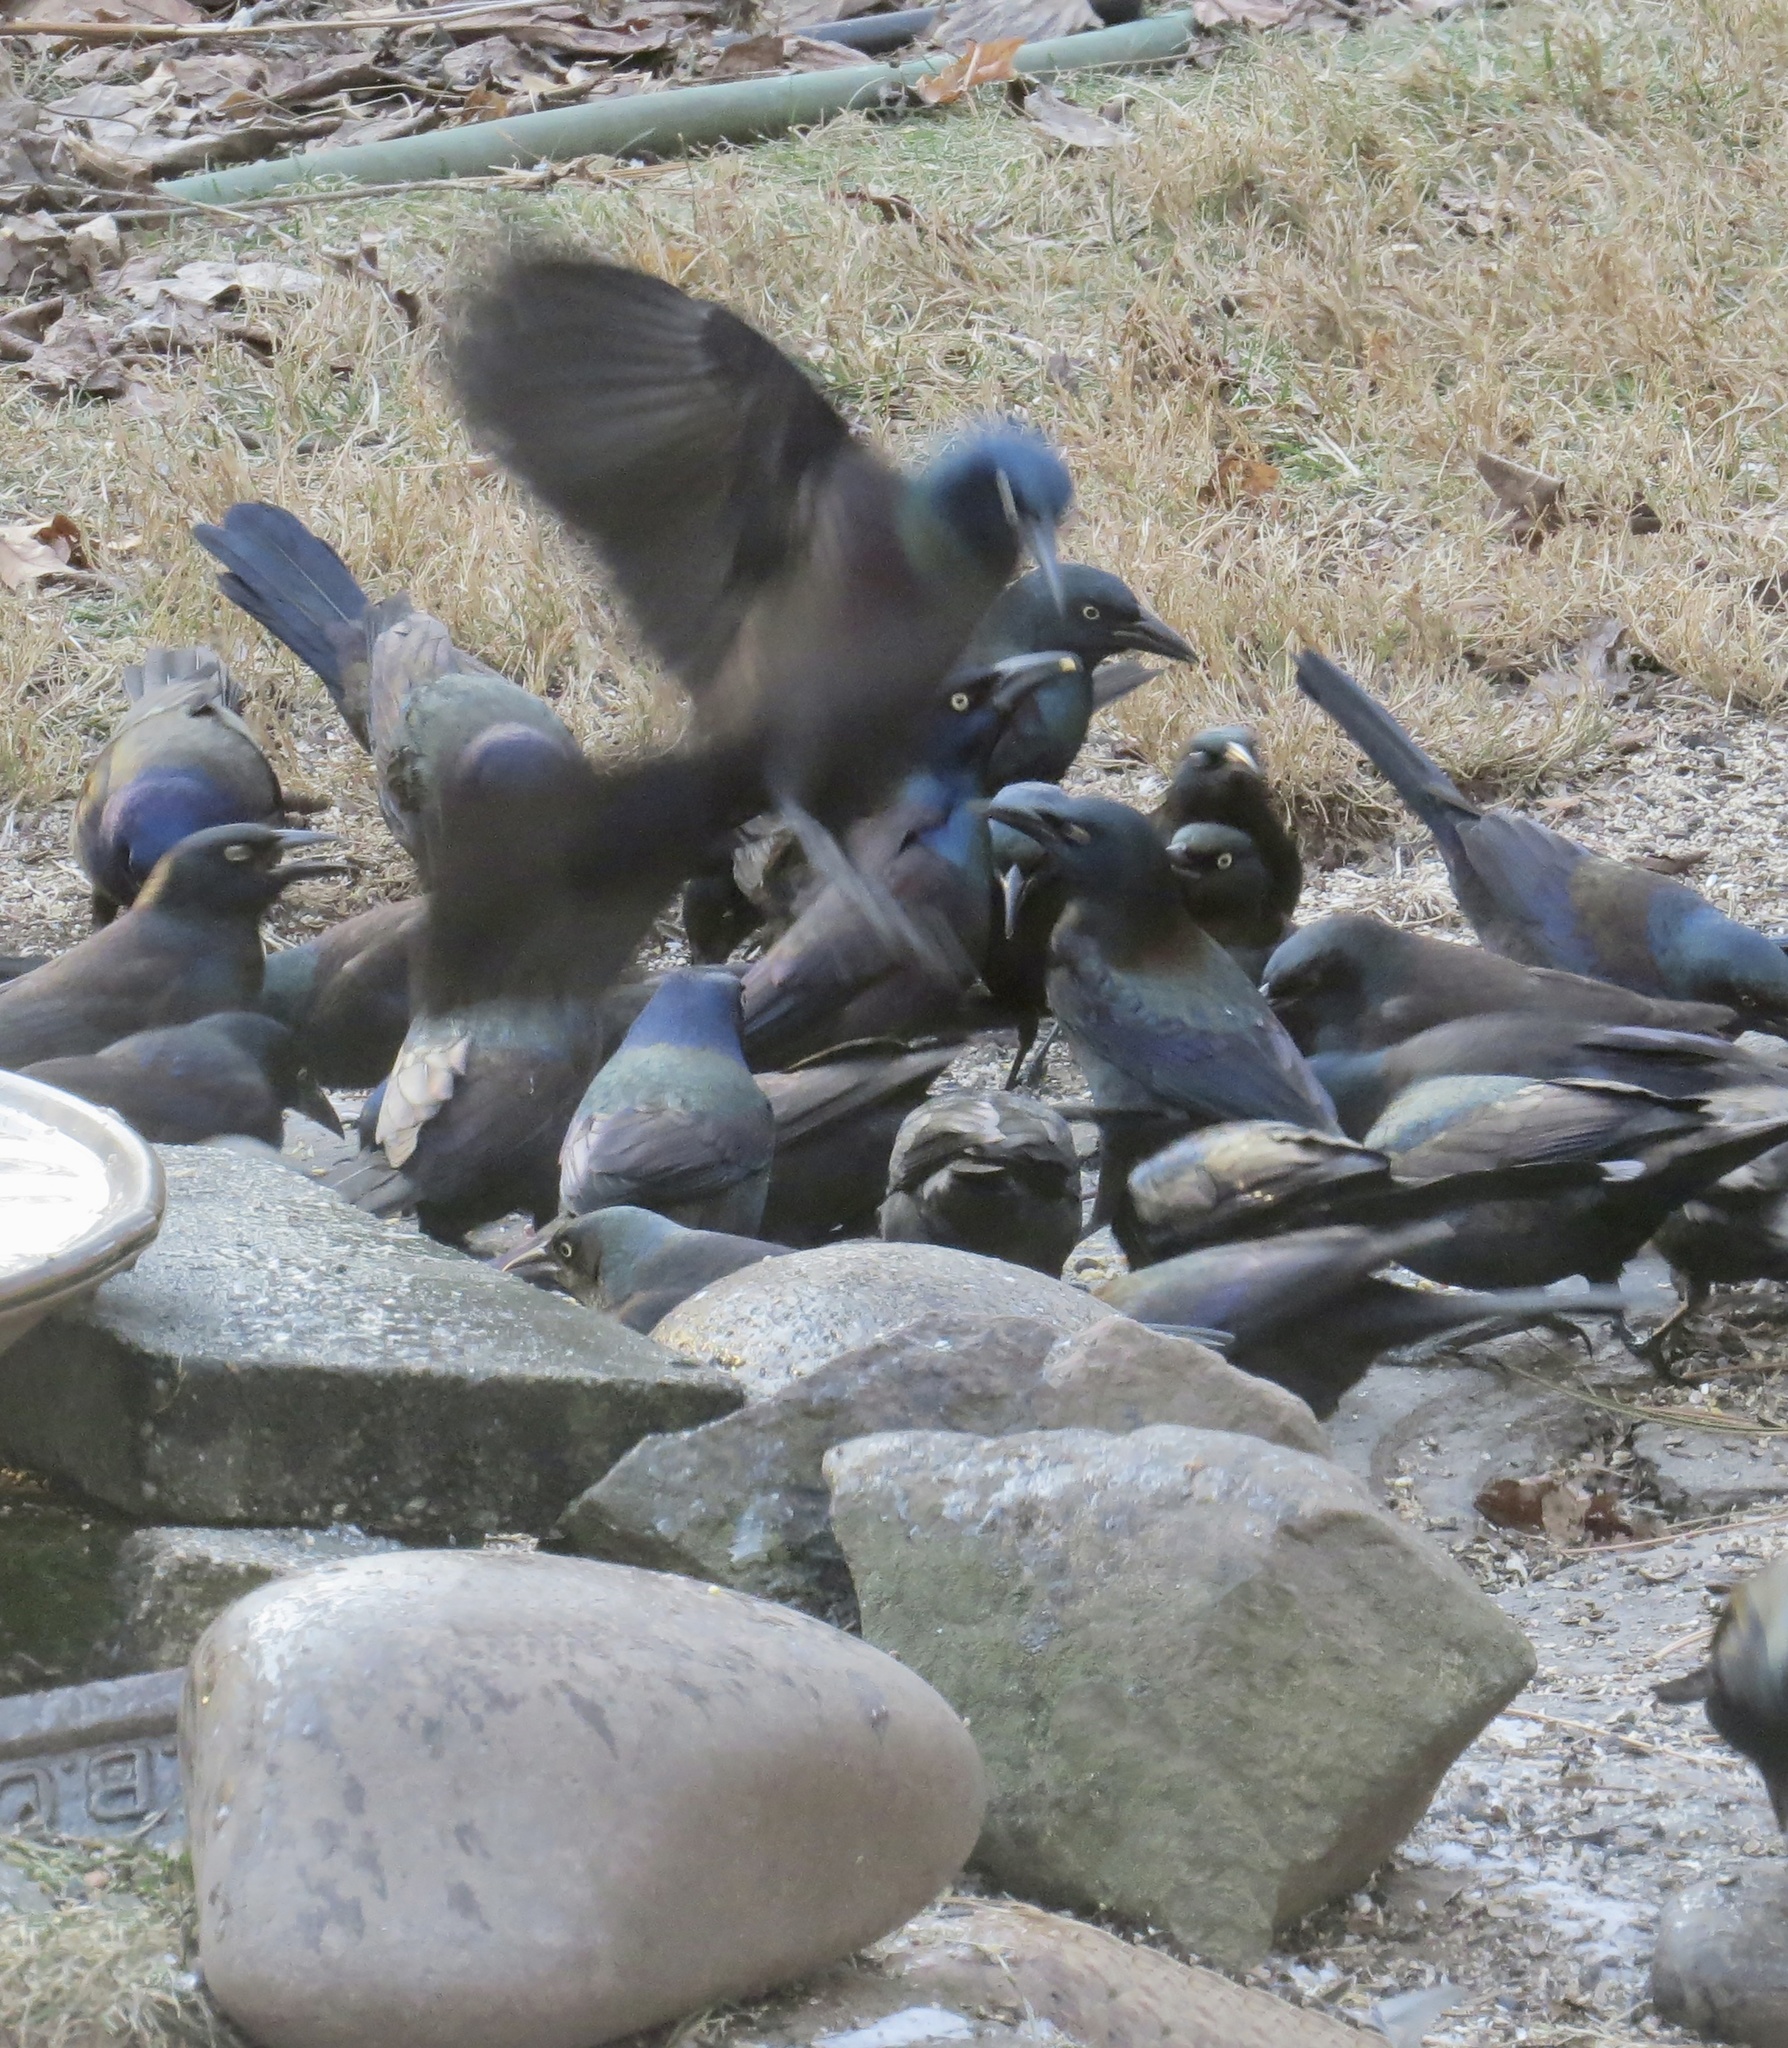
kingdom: Animalia
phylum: Chordata
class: Aves
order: Passeriformes
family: Icteridae
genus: Quiscalus
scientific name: Quiscalus quiscula
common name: Common grackle
